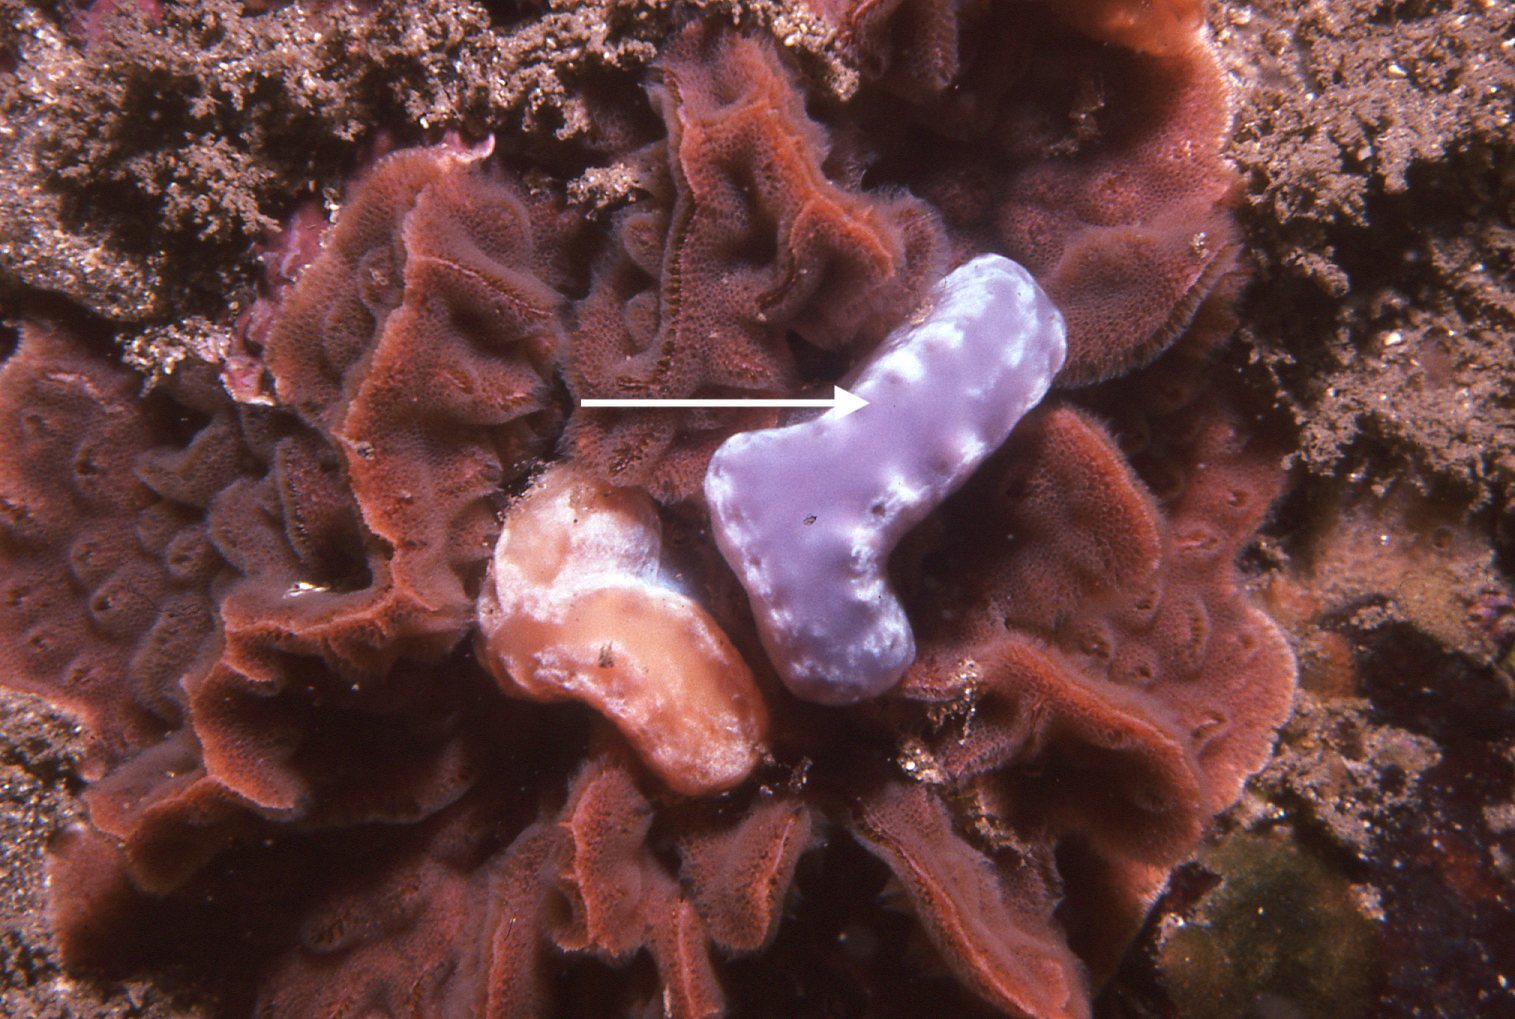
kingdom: Animalia
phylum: Chordata
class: Ascidiacea
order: Aplousobranchia
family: Holozoidae
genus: Sycozoa
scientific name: Sycozoa cerebriformis
